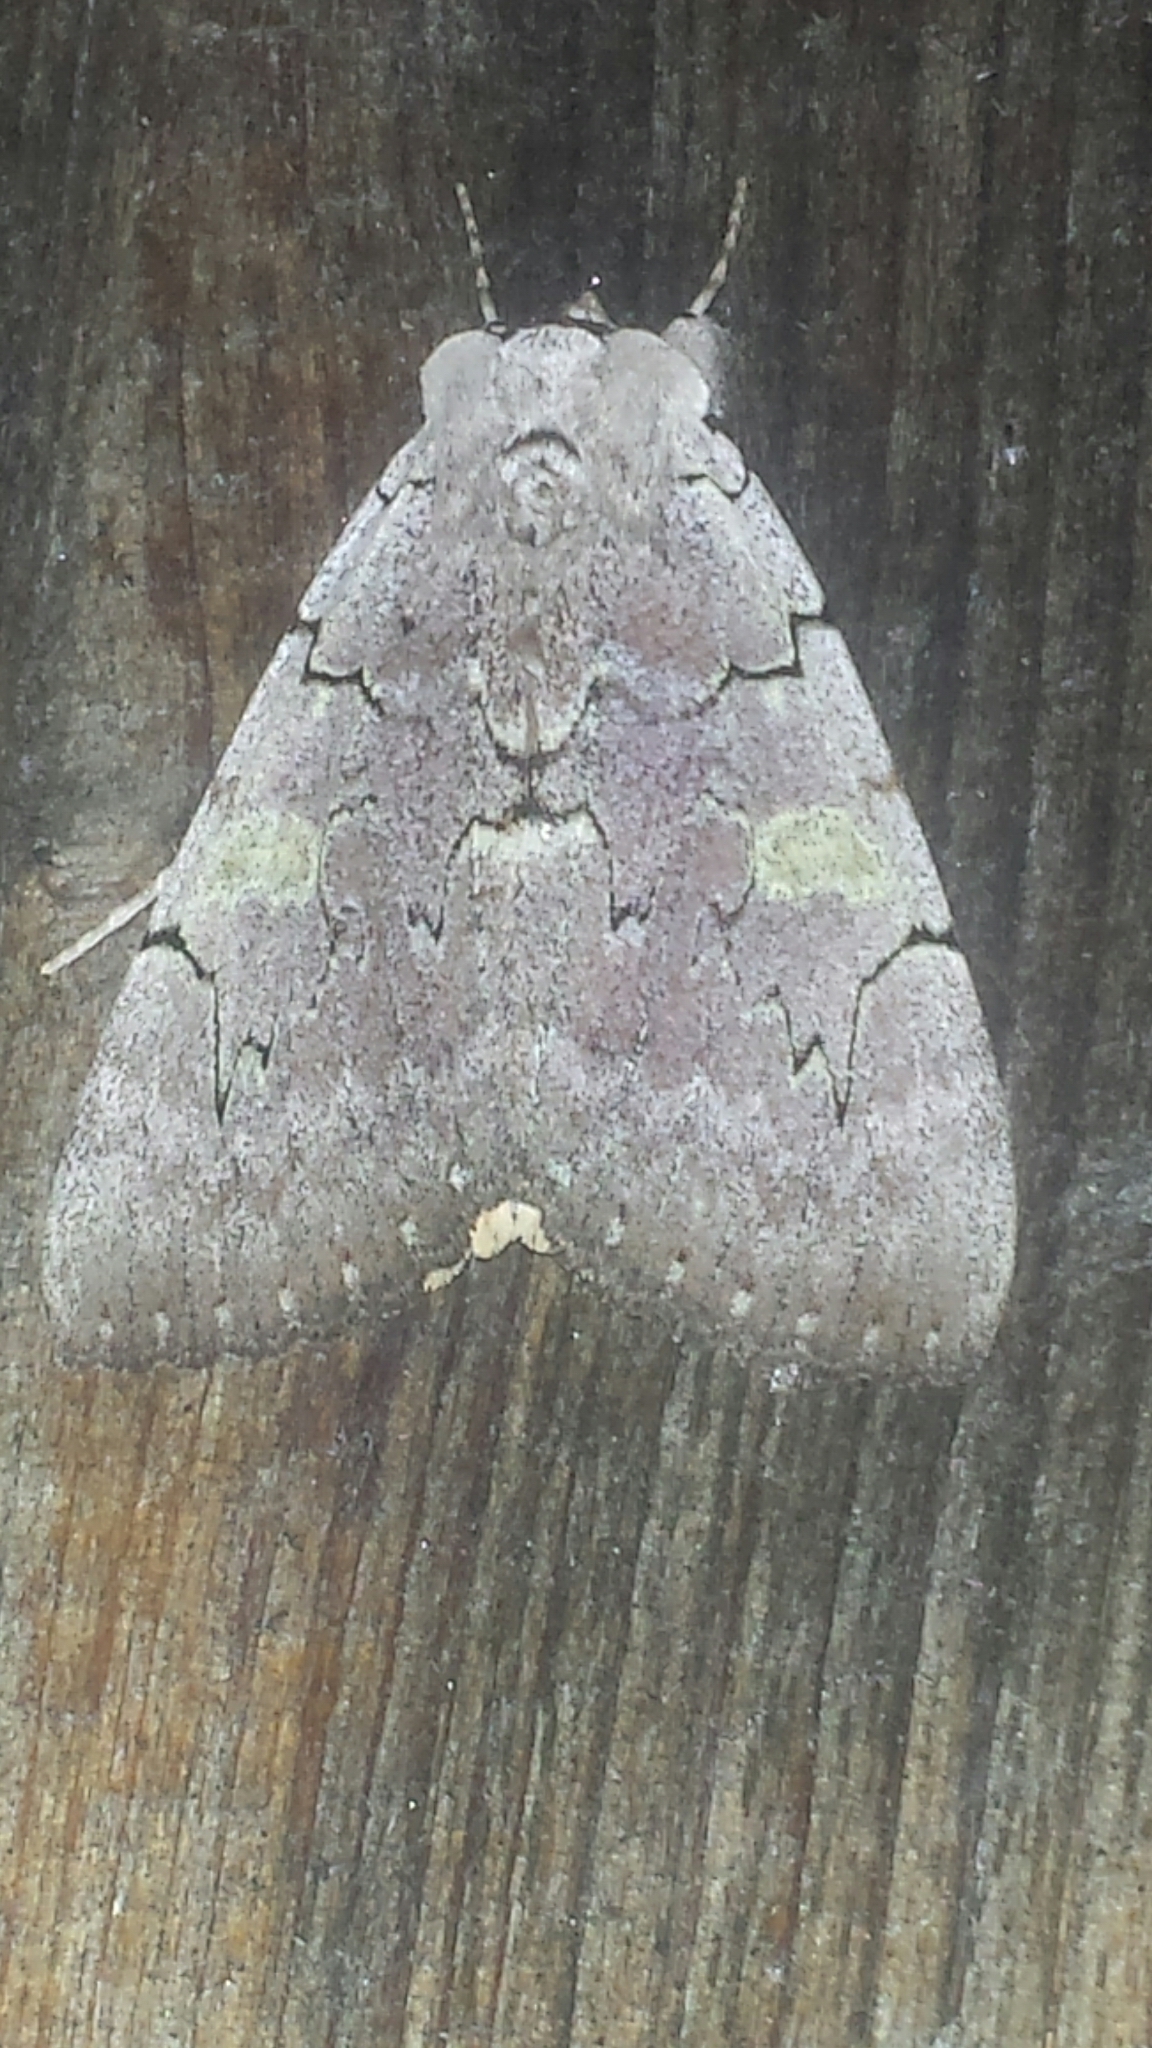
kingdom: Animalia
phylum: Arthropoda
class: Insecta
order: Lepidoptera
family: Erebidae
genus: Catocala
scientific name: Catocala concumbens
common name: Pink underwing
